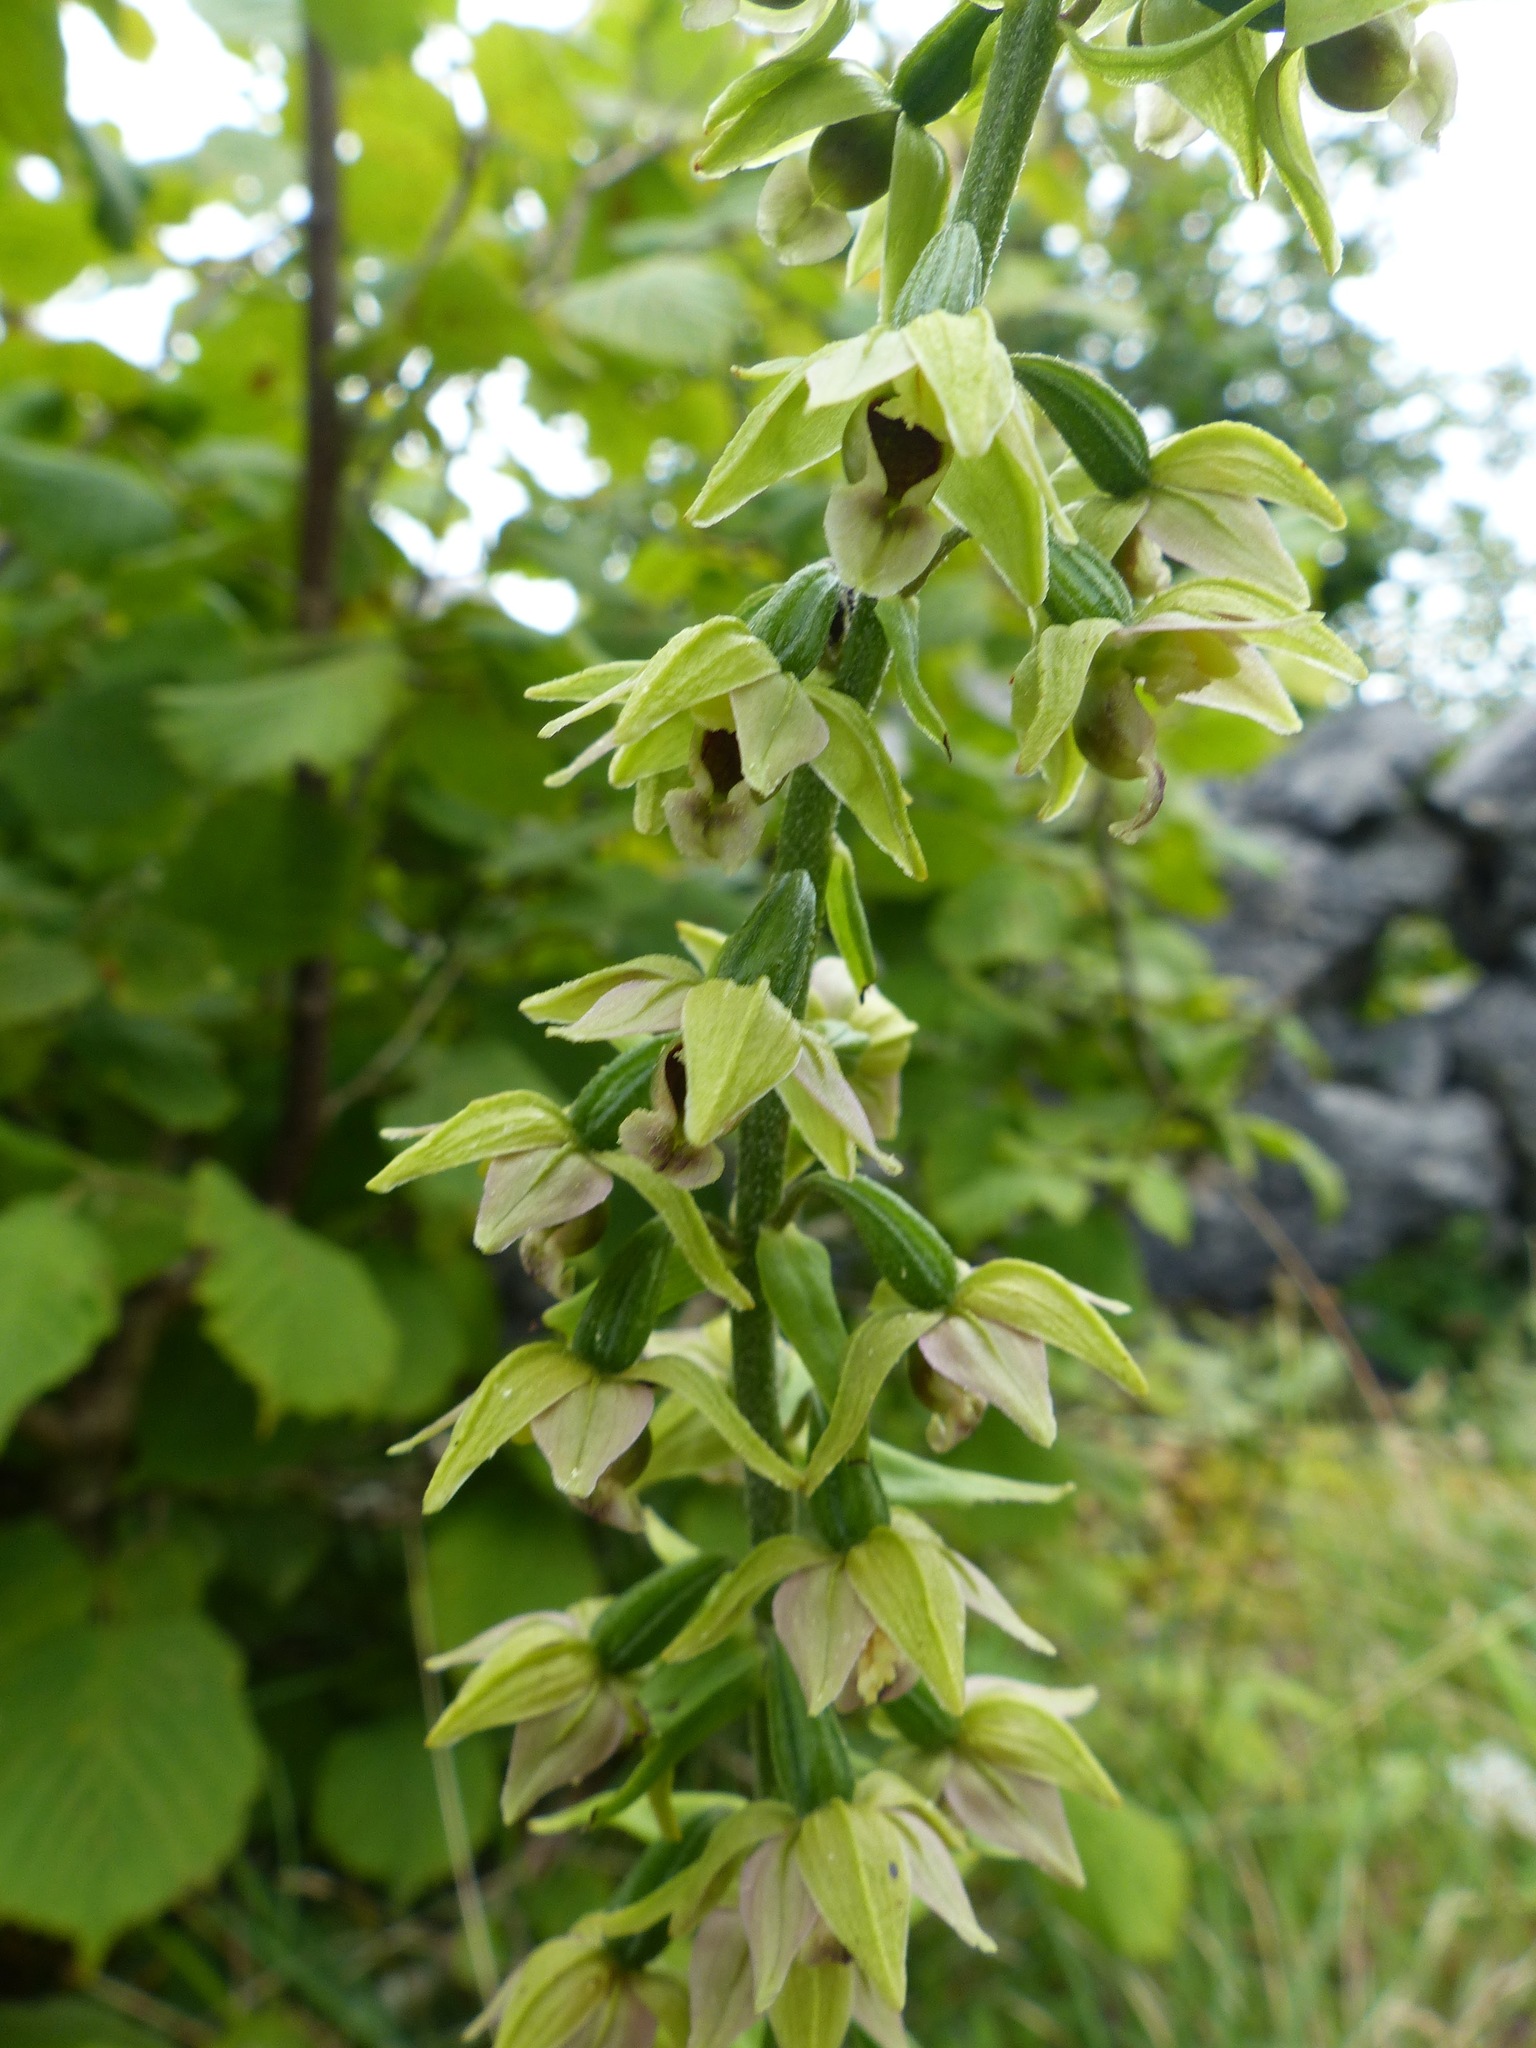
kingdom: Plantae
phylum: Tracheophyta
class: Liliopsida
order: Asparagales
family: Orchidaceae
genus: Epipactis
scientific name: Epipactis helleborine
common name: Broad-leaved helleborine
